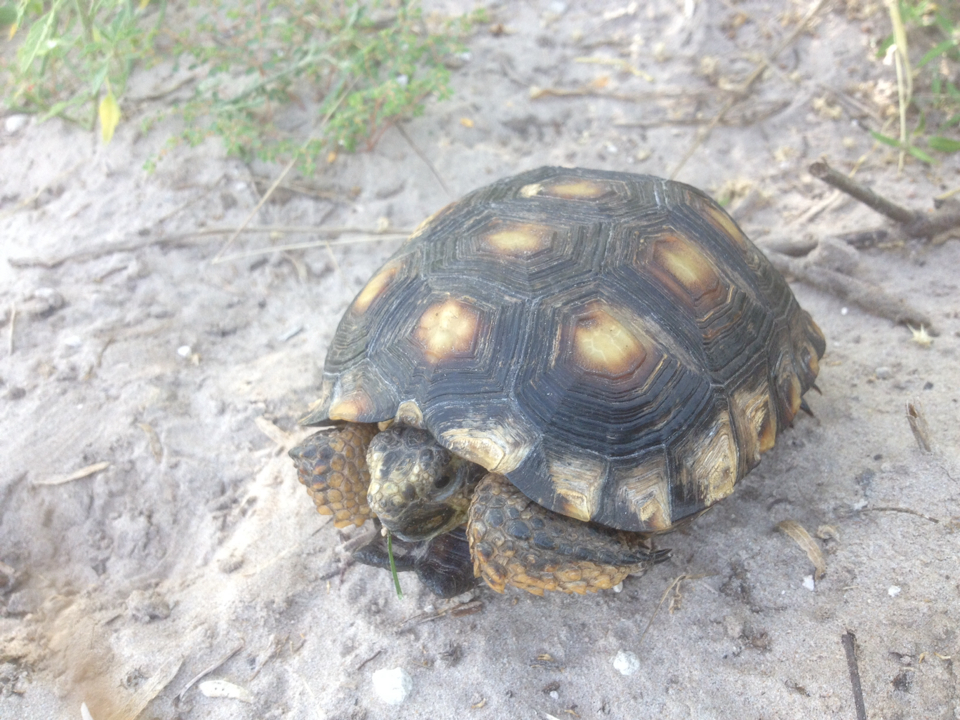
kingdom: Animalia
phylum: Chordata
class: Testudines
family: Testudinidae
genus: Gopherus
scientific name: Gopherus berlandieri
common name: Texas (gopher )tortoise
